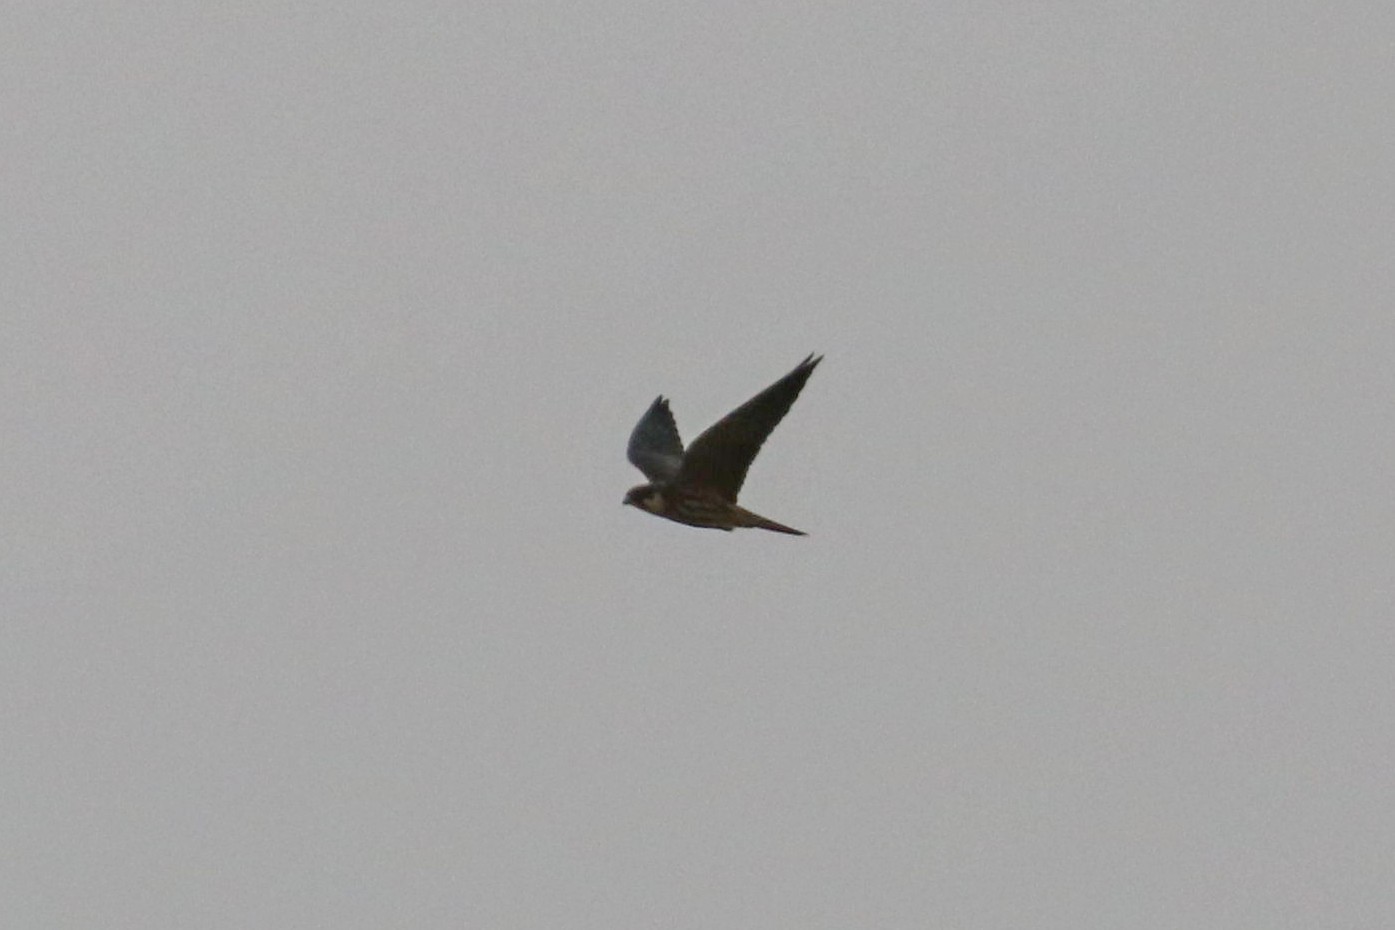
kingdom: Animalia
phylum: Chordata
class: Aves
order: Falconiformes
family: Falconidae
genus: Falco
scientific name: Falco subbuteo
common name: Eurasian hobby
